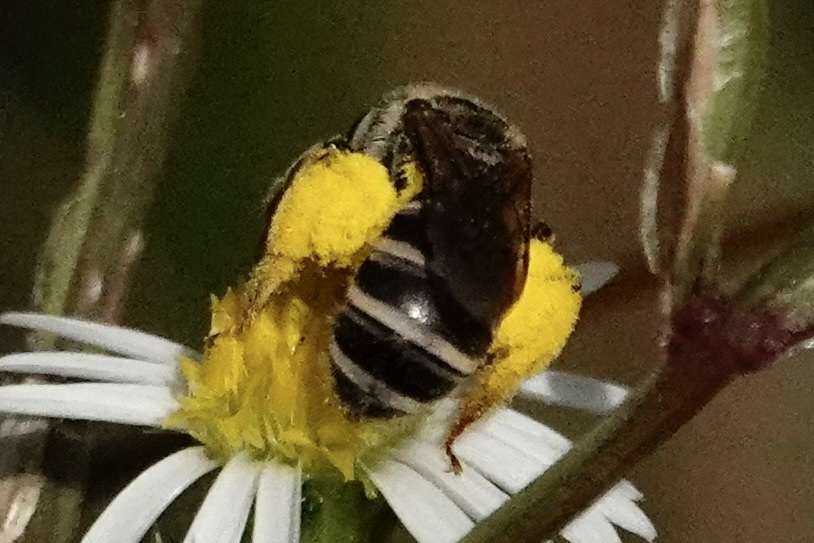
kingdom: Animalia
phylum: Arthropoda
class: Insecta
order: Hymenoptera
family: Halictidae
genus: Halictus
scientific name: Halictus ligatus
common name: Ligated furrow bee
